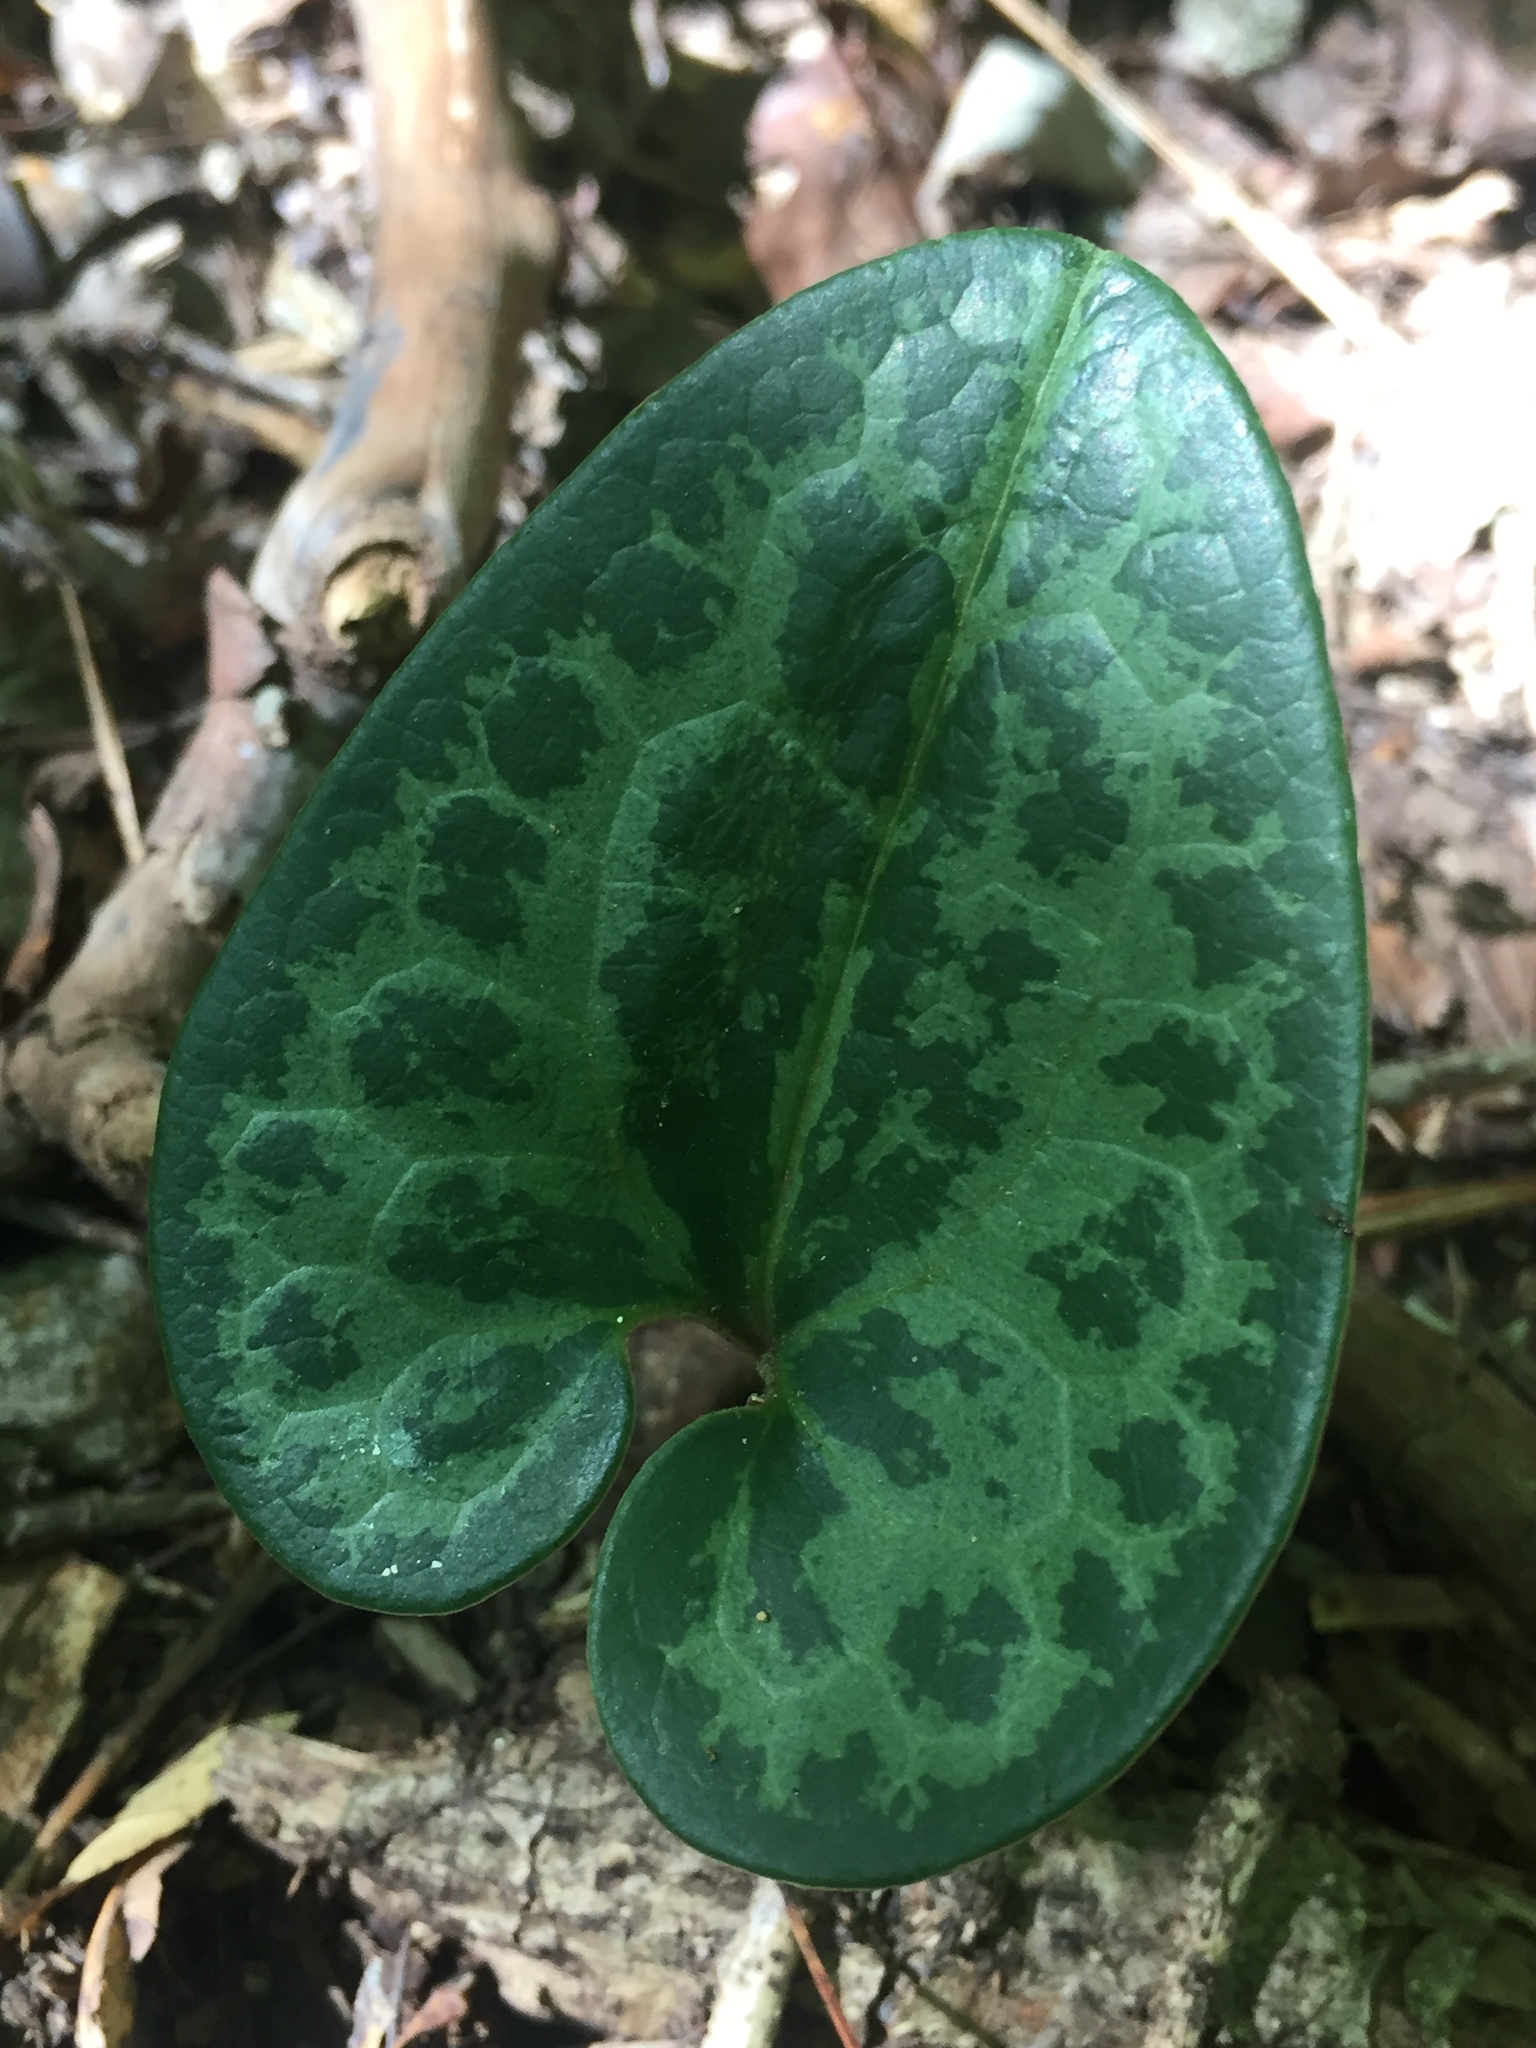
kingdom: Plantae
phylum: Tracheophyta
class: Magnoliopsida
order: Piperales
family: Aristolochiaceae
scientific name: Aristolochiaceae
